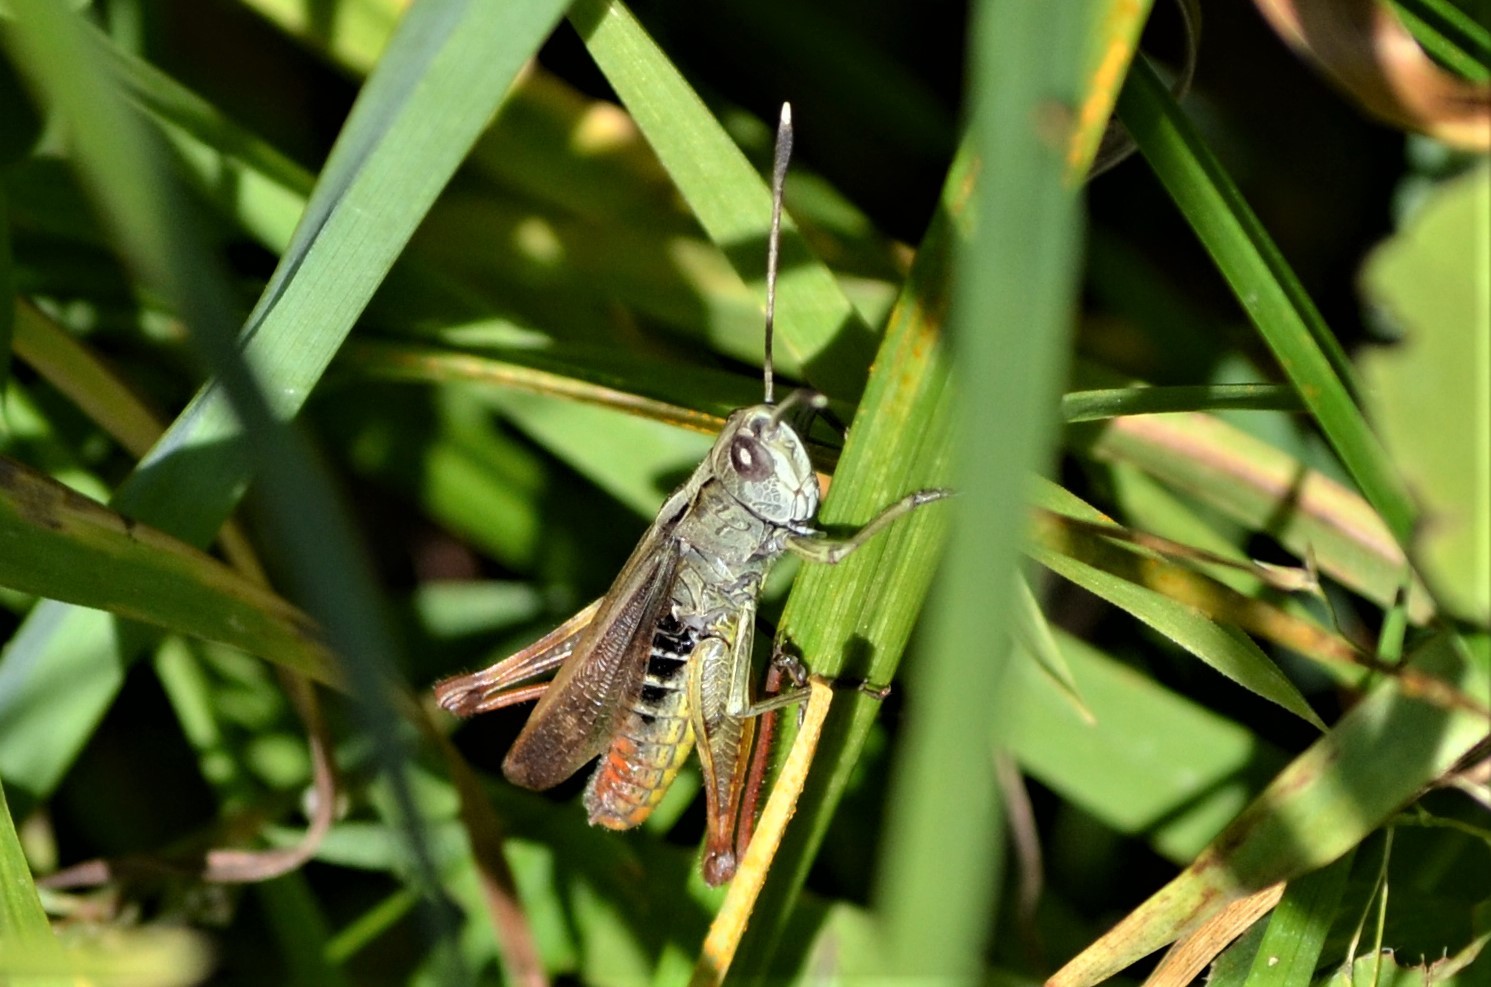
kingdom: Animalia
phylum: Arthropoda
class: Insecta
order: Orthoptera
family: Acrididae
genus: Gomphocerippus
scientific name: Gomphocerippus rufus
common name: Rufous grasshopper
